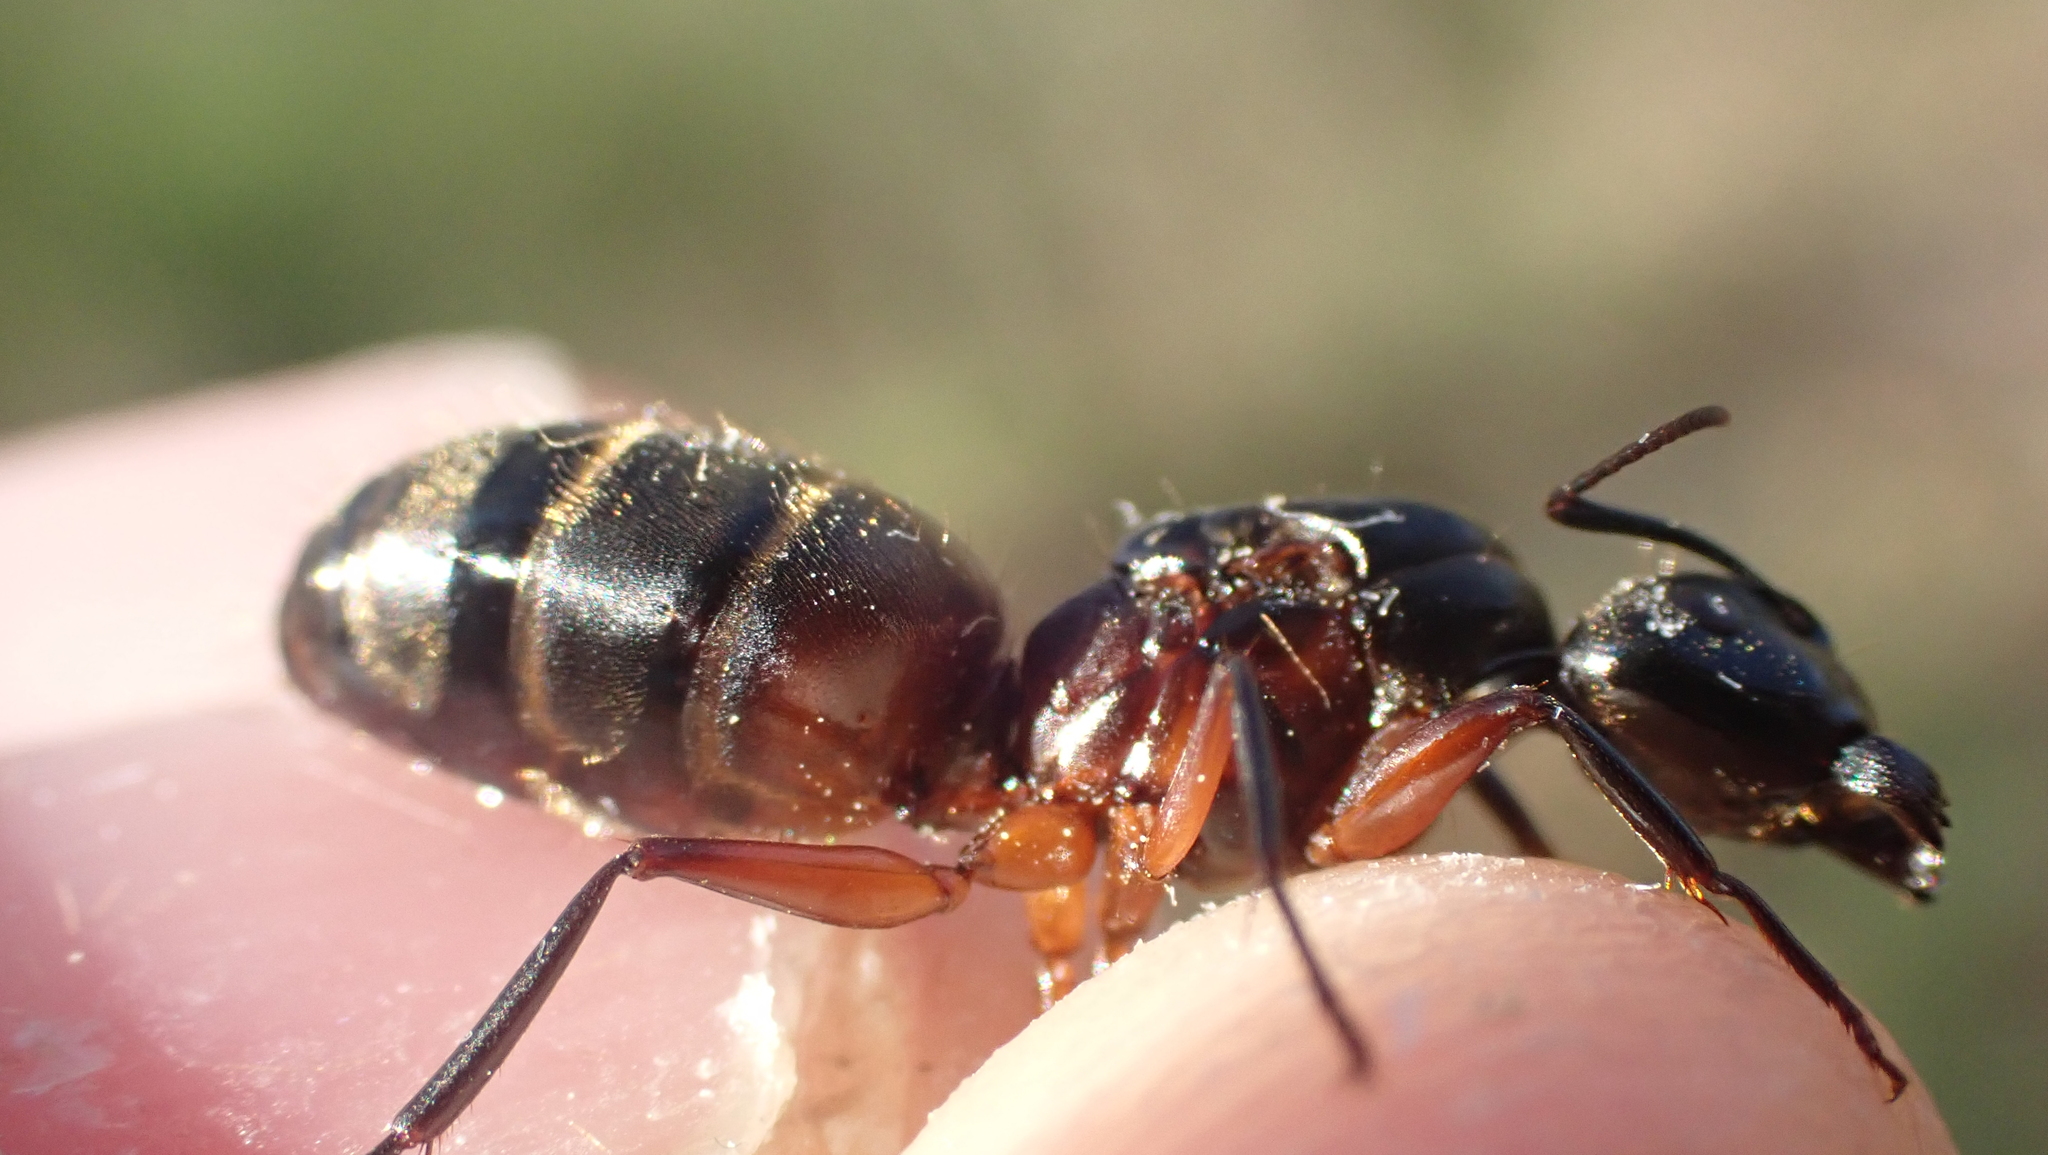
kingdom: Animalia
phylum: Arthropoda
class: Insecta
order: Hymenoptera
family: Formicidae
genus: Camponotus
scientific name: Camponotus chromaiodes
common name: Red carpenter ant
